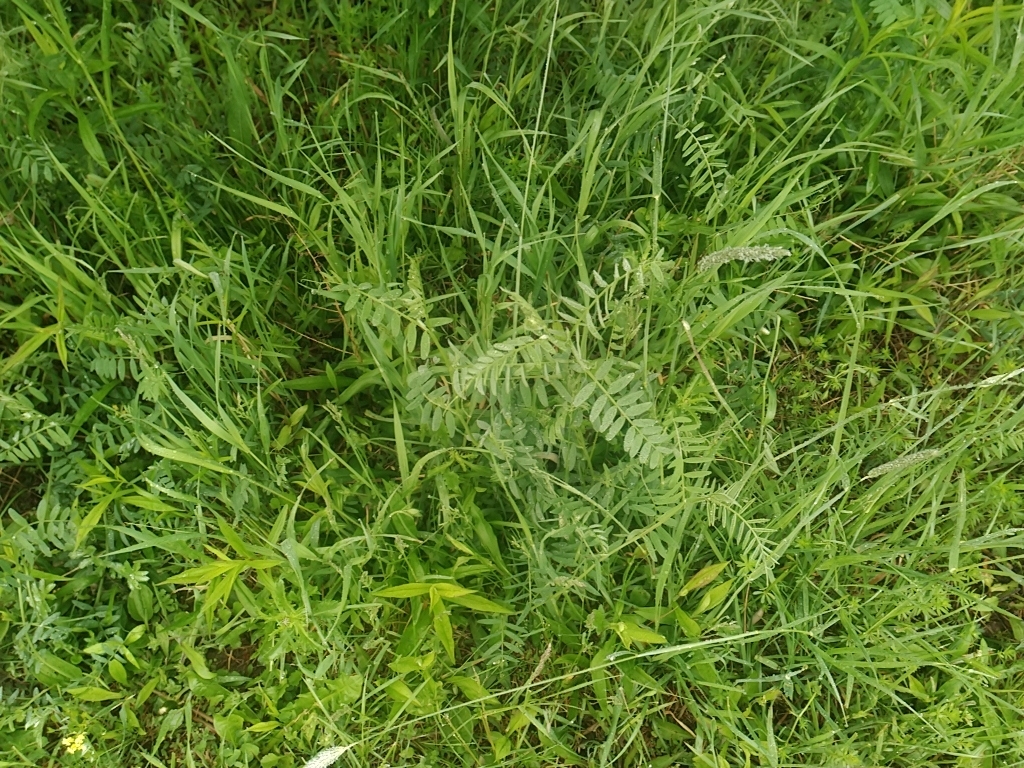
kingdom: Plantae
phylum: Tracheophyta
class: Magnoliopsida
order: Fabales
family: Fabaceae
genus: Vicia
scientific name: Vicia cracca
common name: Bird vetch
